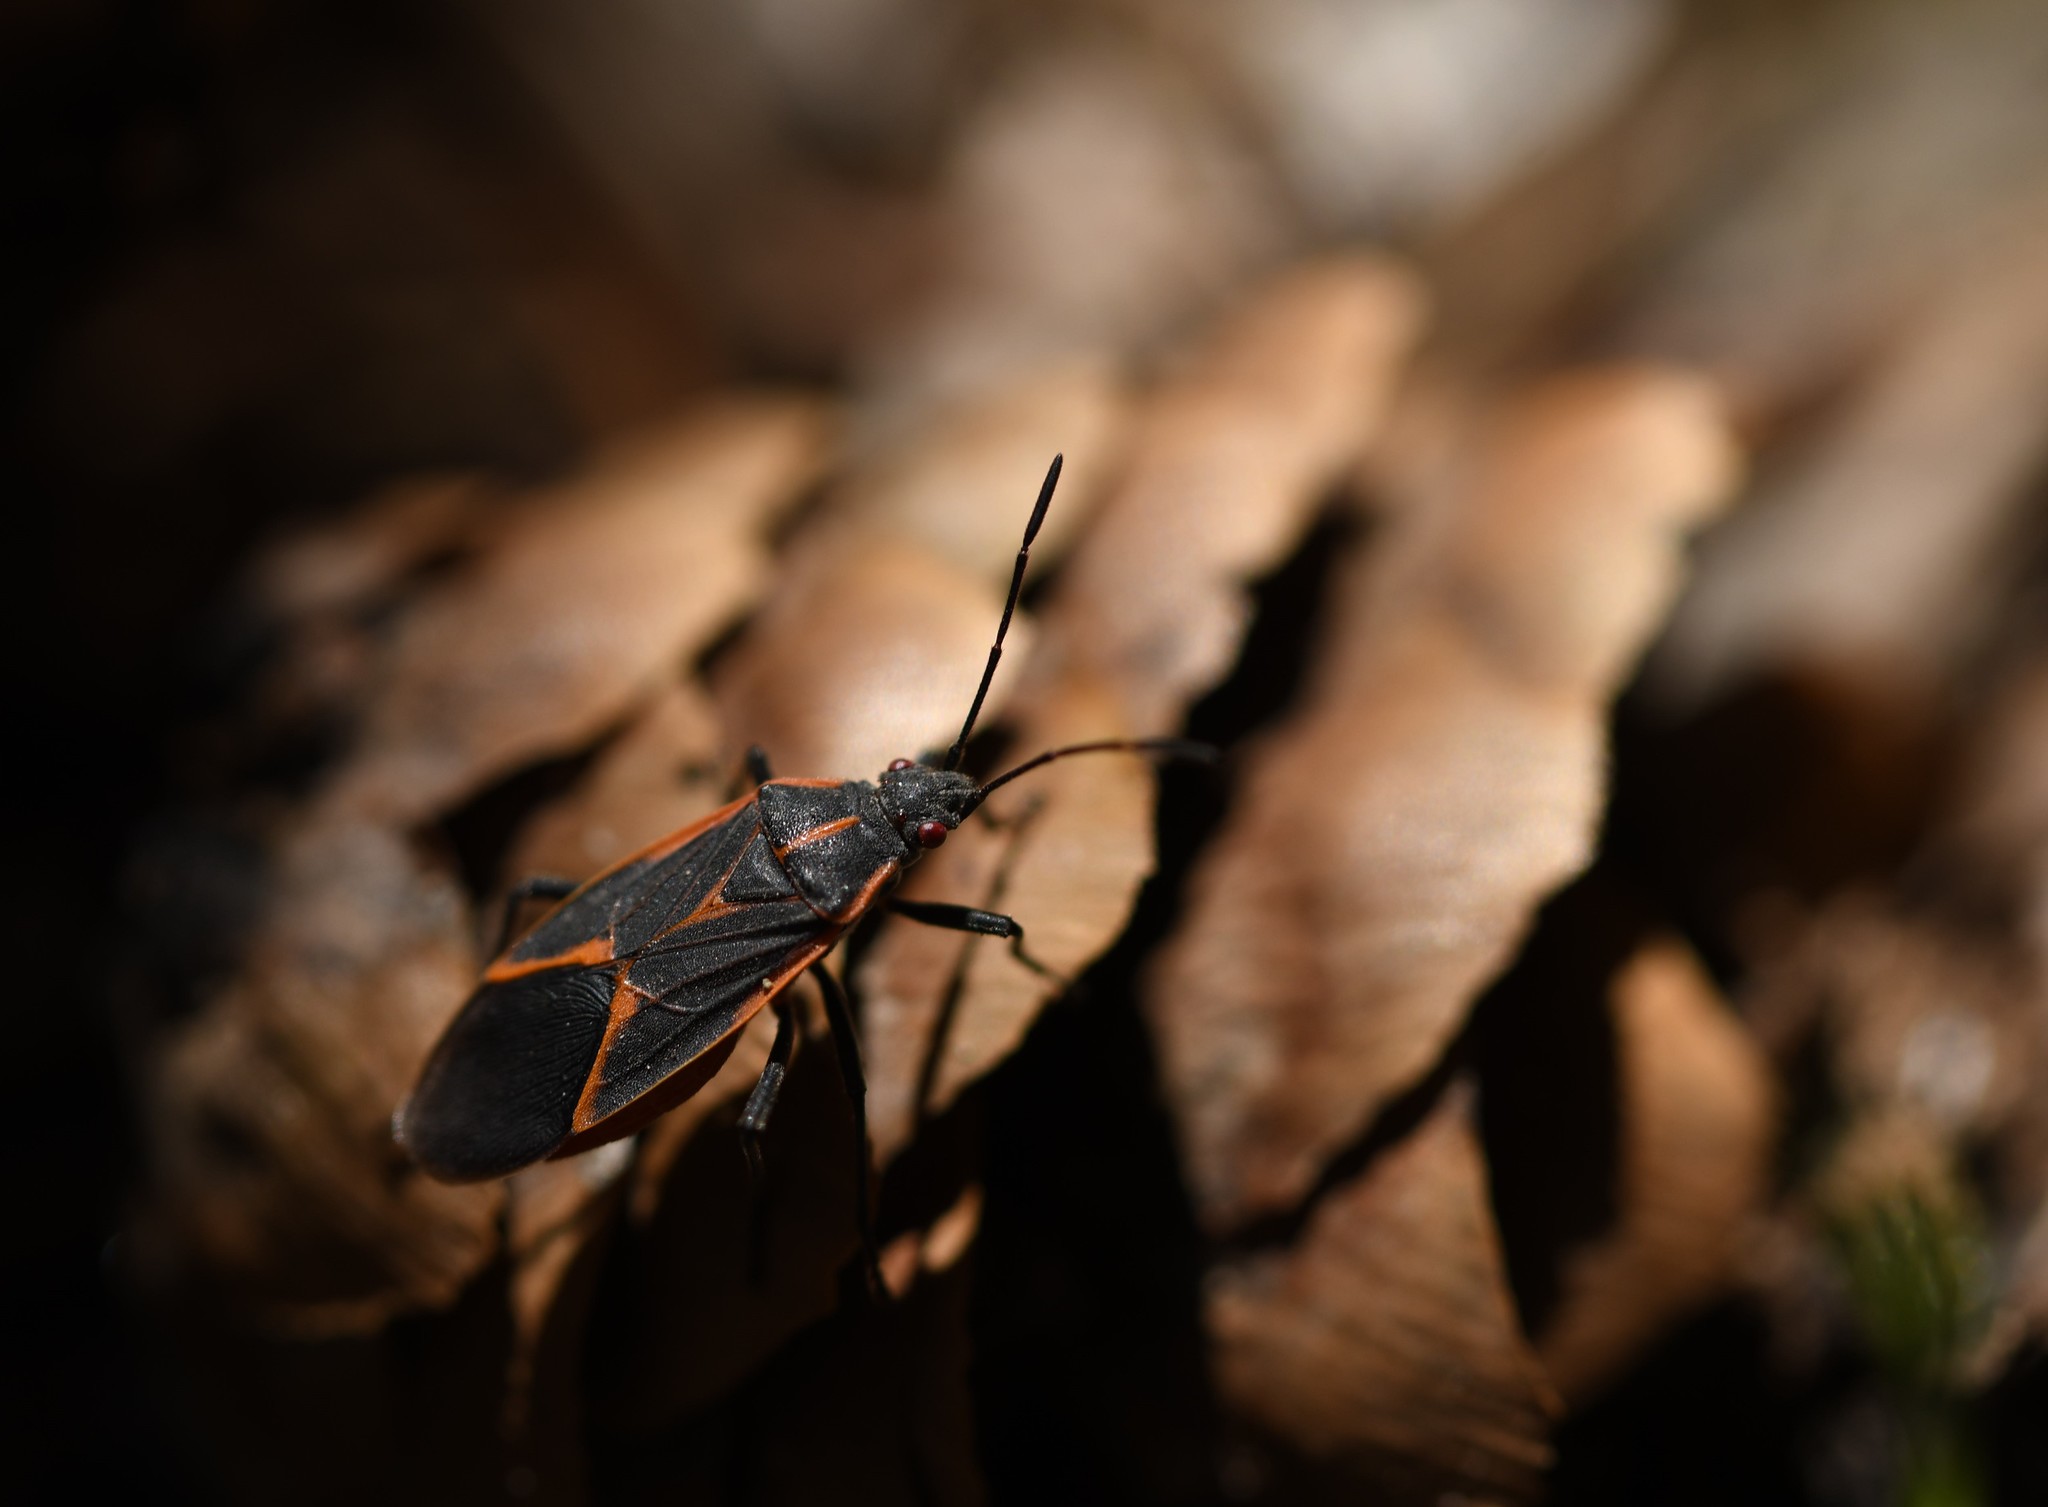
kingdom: Animalia
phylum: Arthropoda
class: Insecta
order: Hemiptera
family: Rhopalidae
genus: Boisea
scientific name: Boisea trivittata
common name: Boxelder bug
